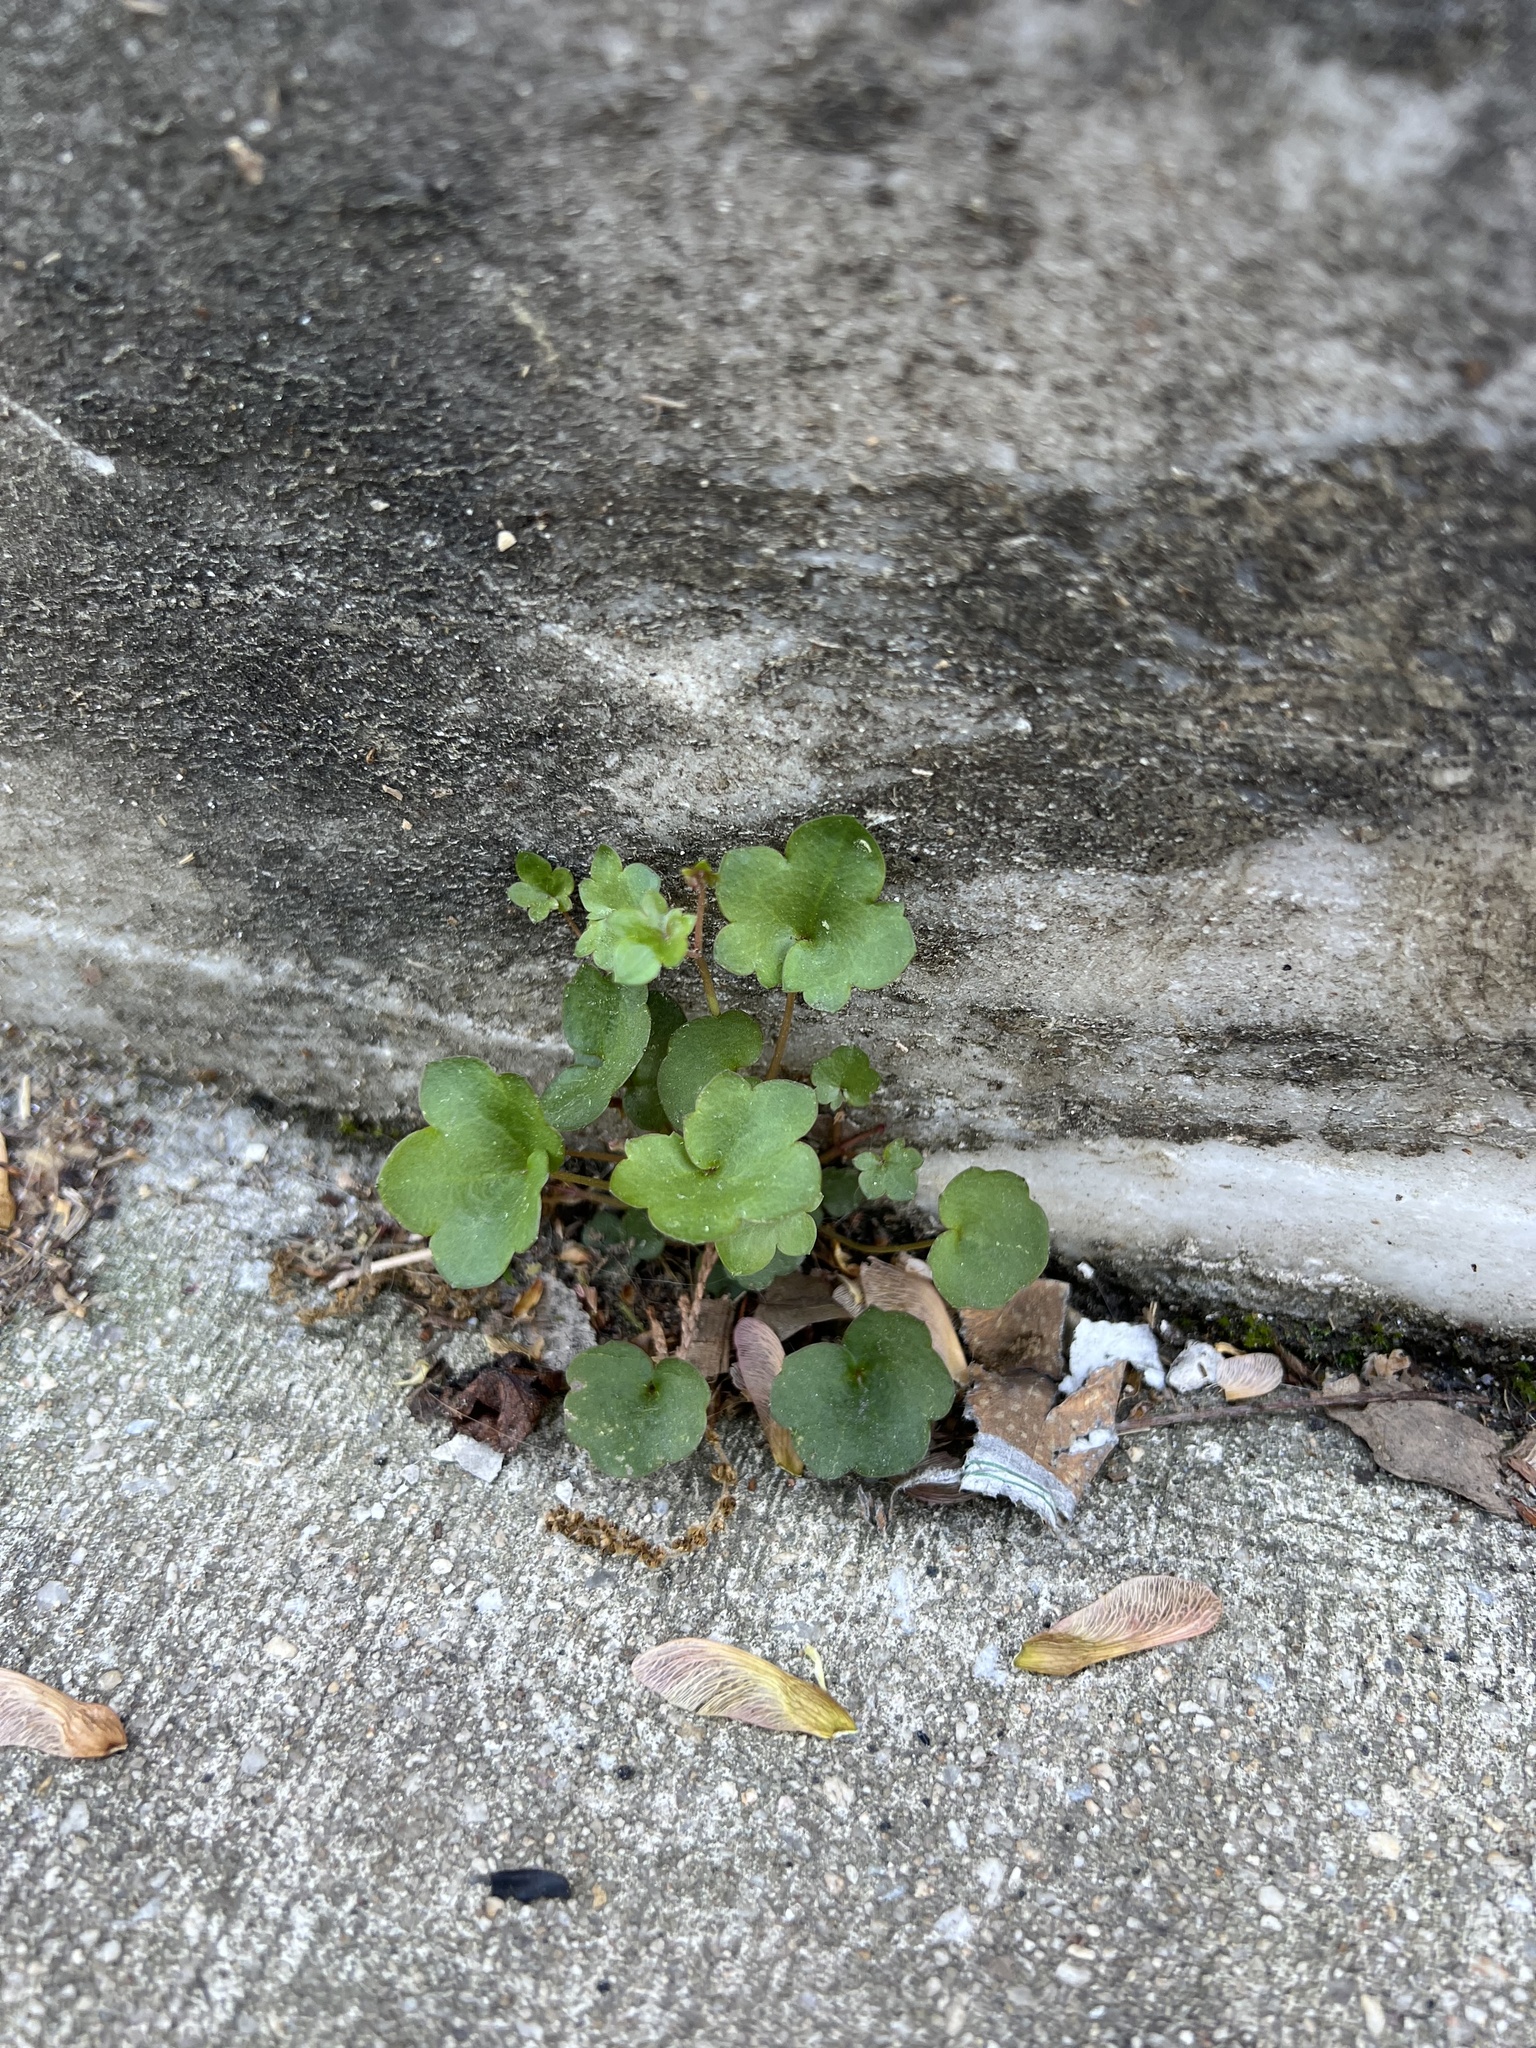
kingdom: Plantae
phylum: Tracheophyta
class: Magnoliopsida
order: Lamiales
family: Plantaginaceae
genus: Cymbalaria
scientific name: Cymbalaria muralis
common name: Ivy-leaved toadflax
